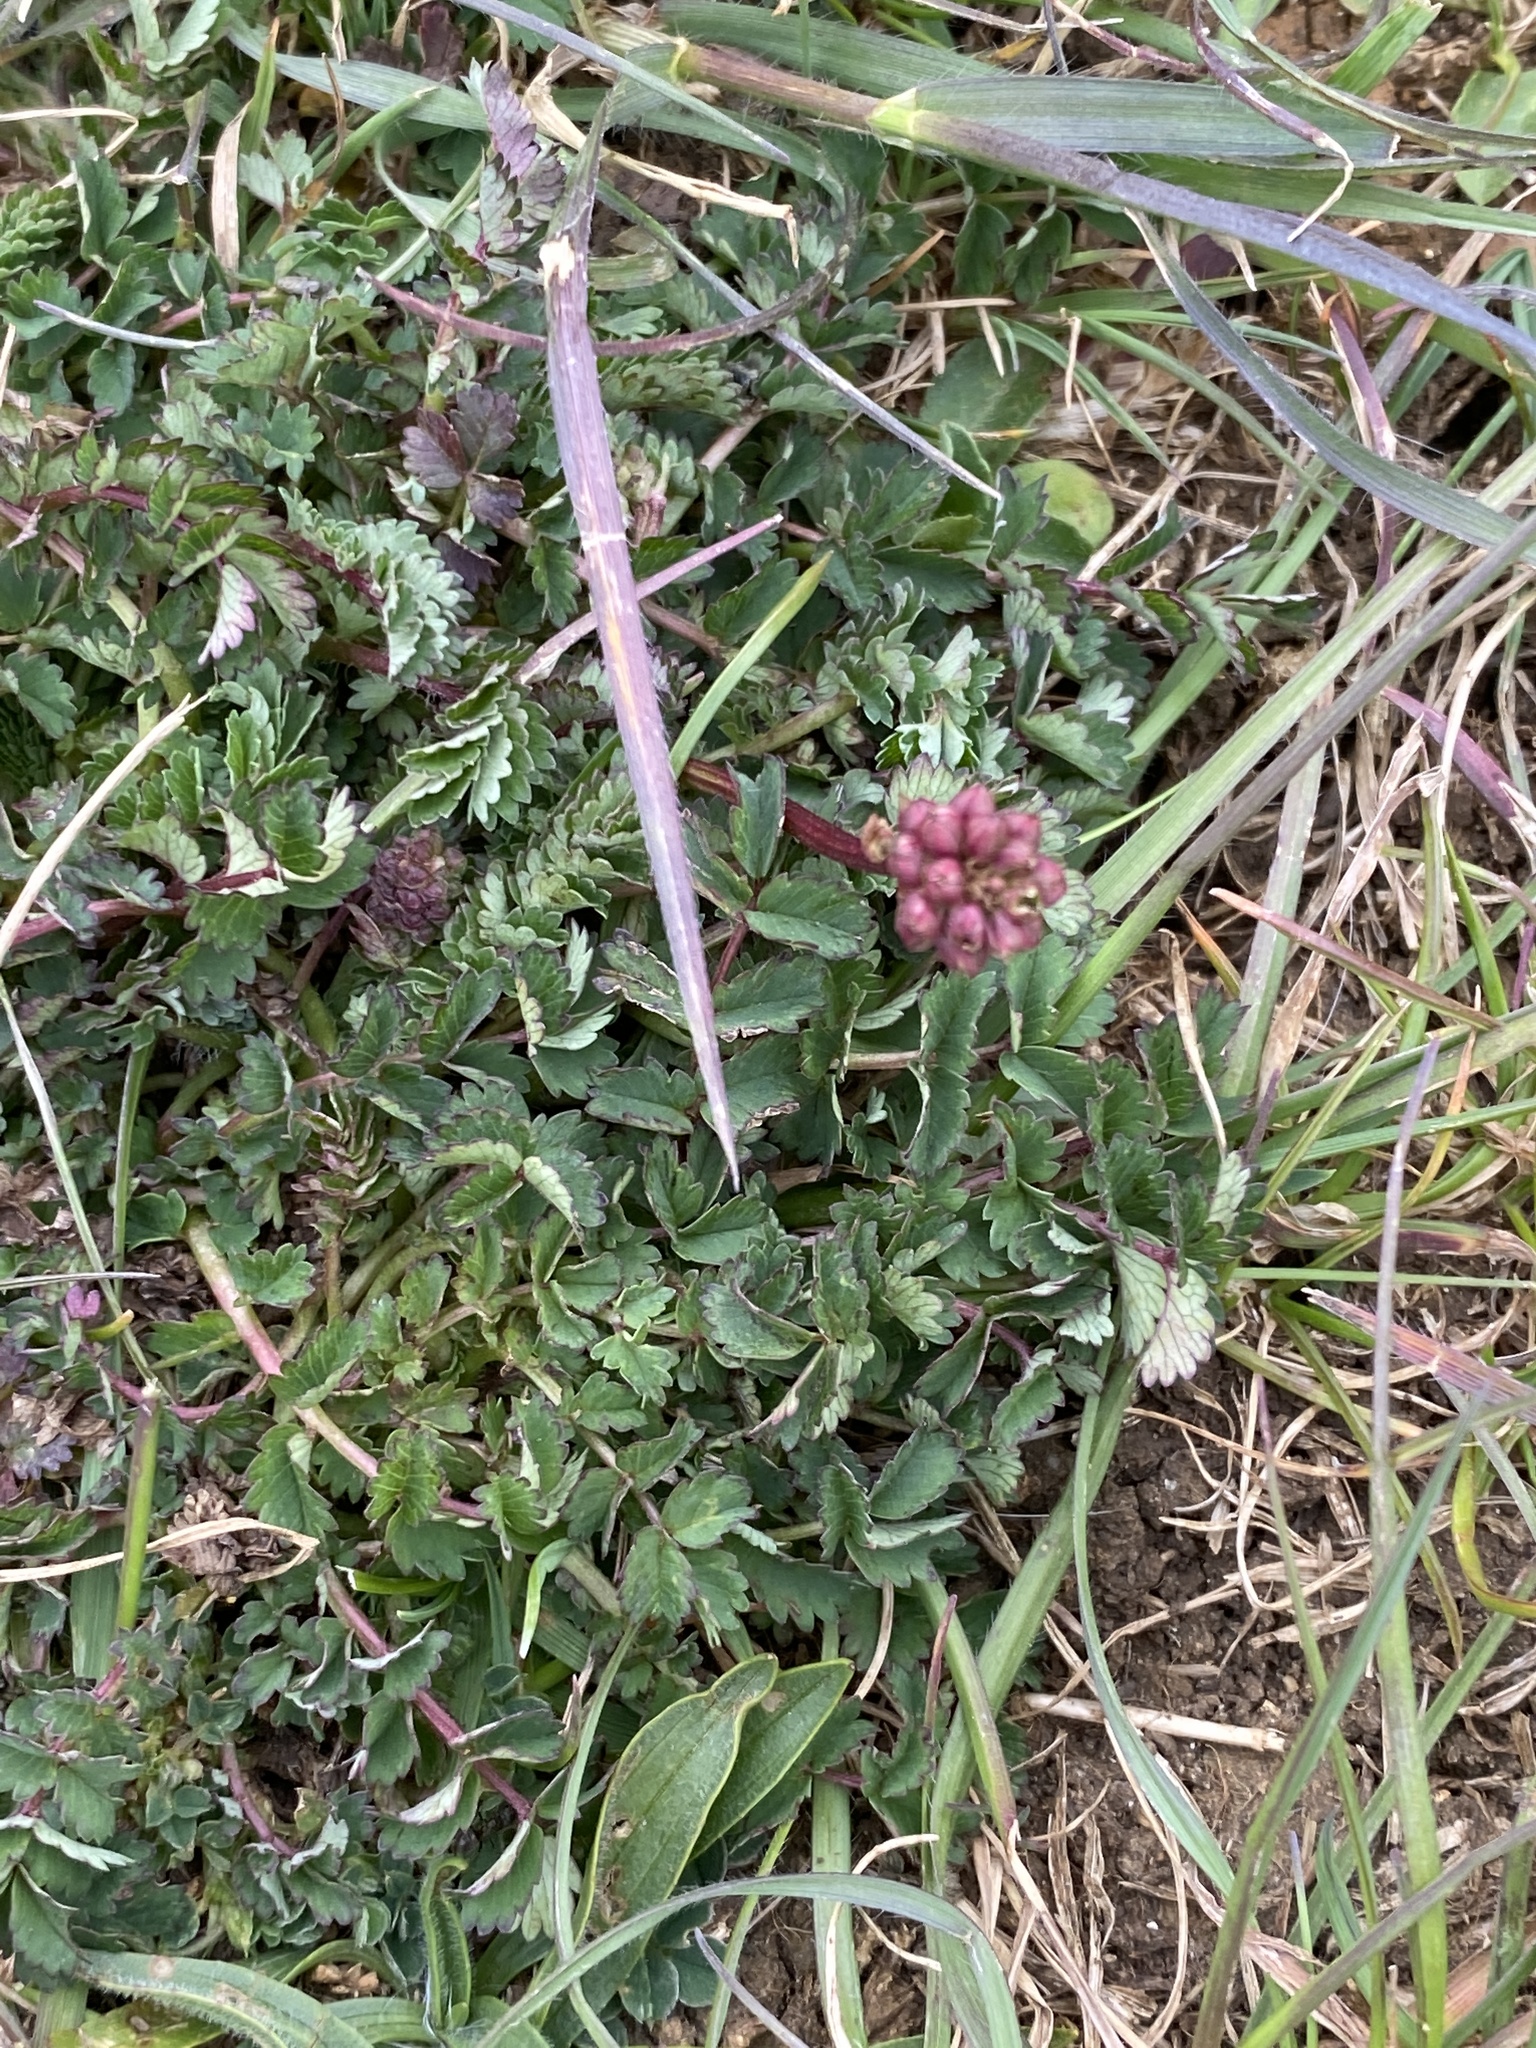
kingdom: Plantae
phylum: Tracheophyta
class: Magnoliopsida
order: Rosales
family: Rosaceae
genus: Poterium
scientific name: Poterium sanguisorba
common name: Salad burnet
